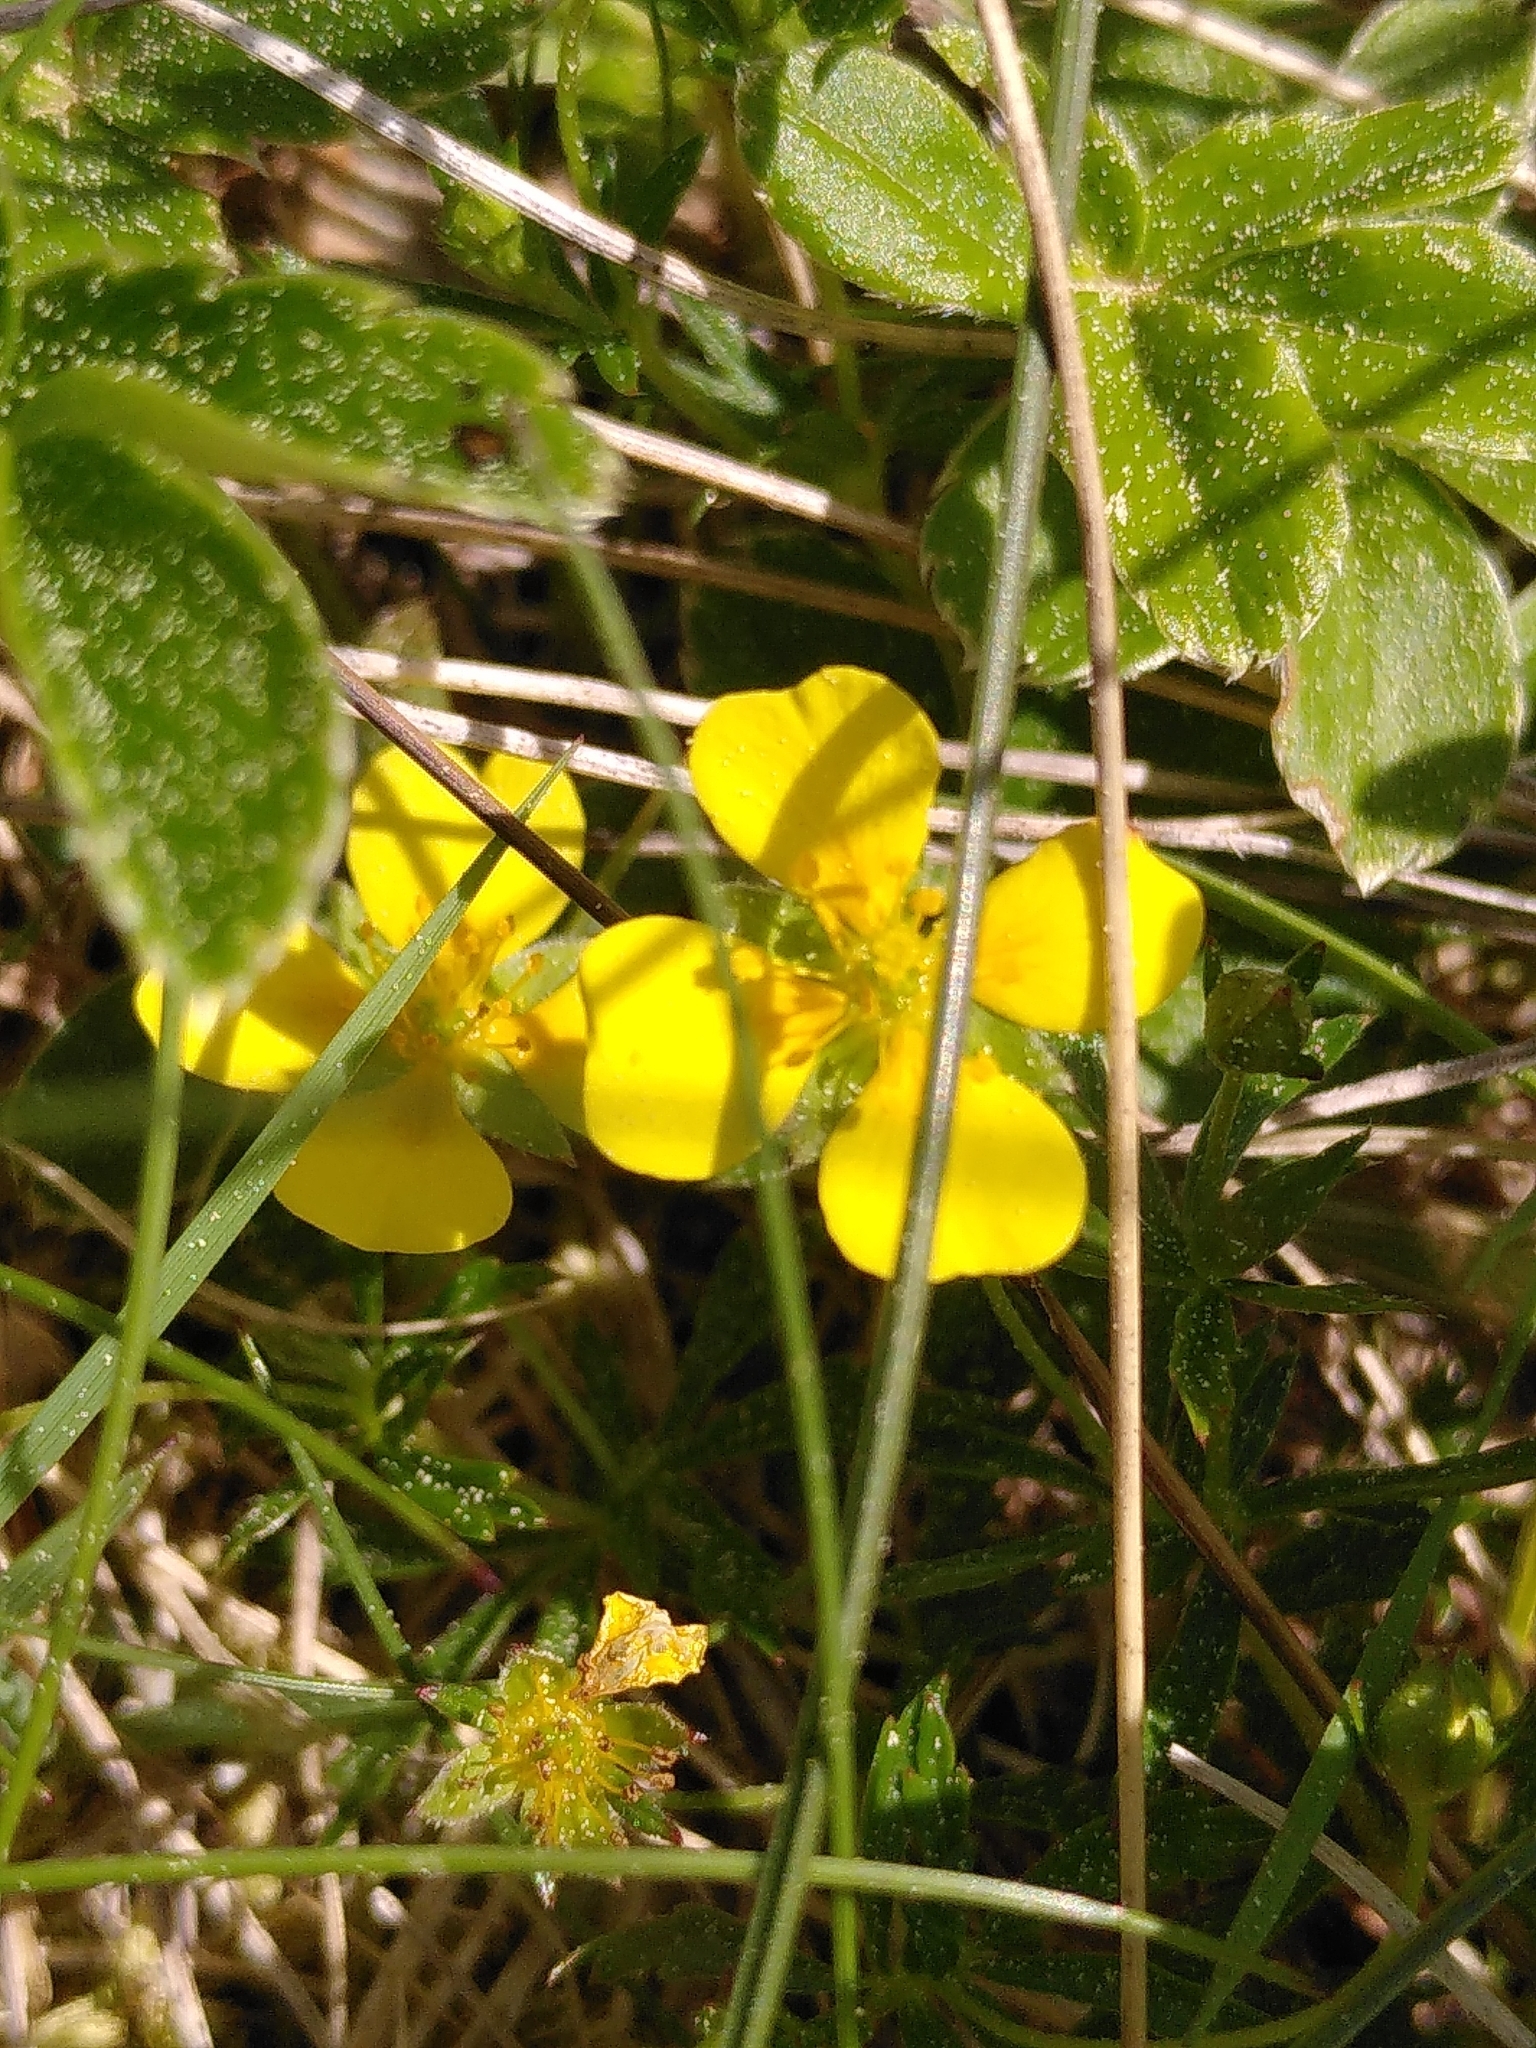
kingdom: Plantae
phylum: Tracheophyta
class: Magnoliopsida
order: Rosales
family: Rosaceae
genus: Potentilla
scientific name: Potentilla erecta
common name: Tormentil
